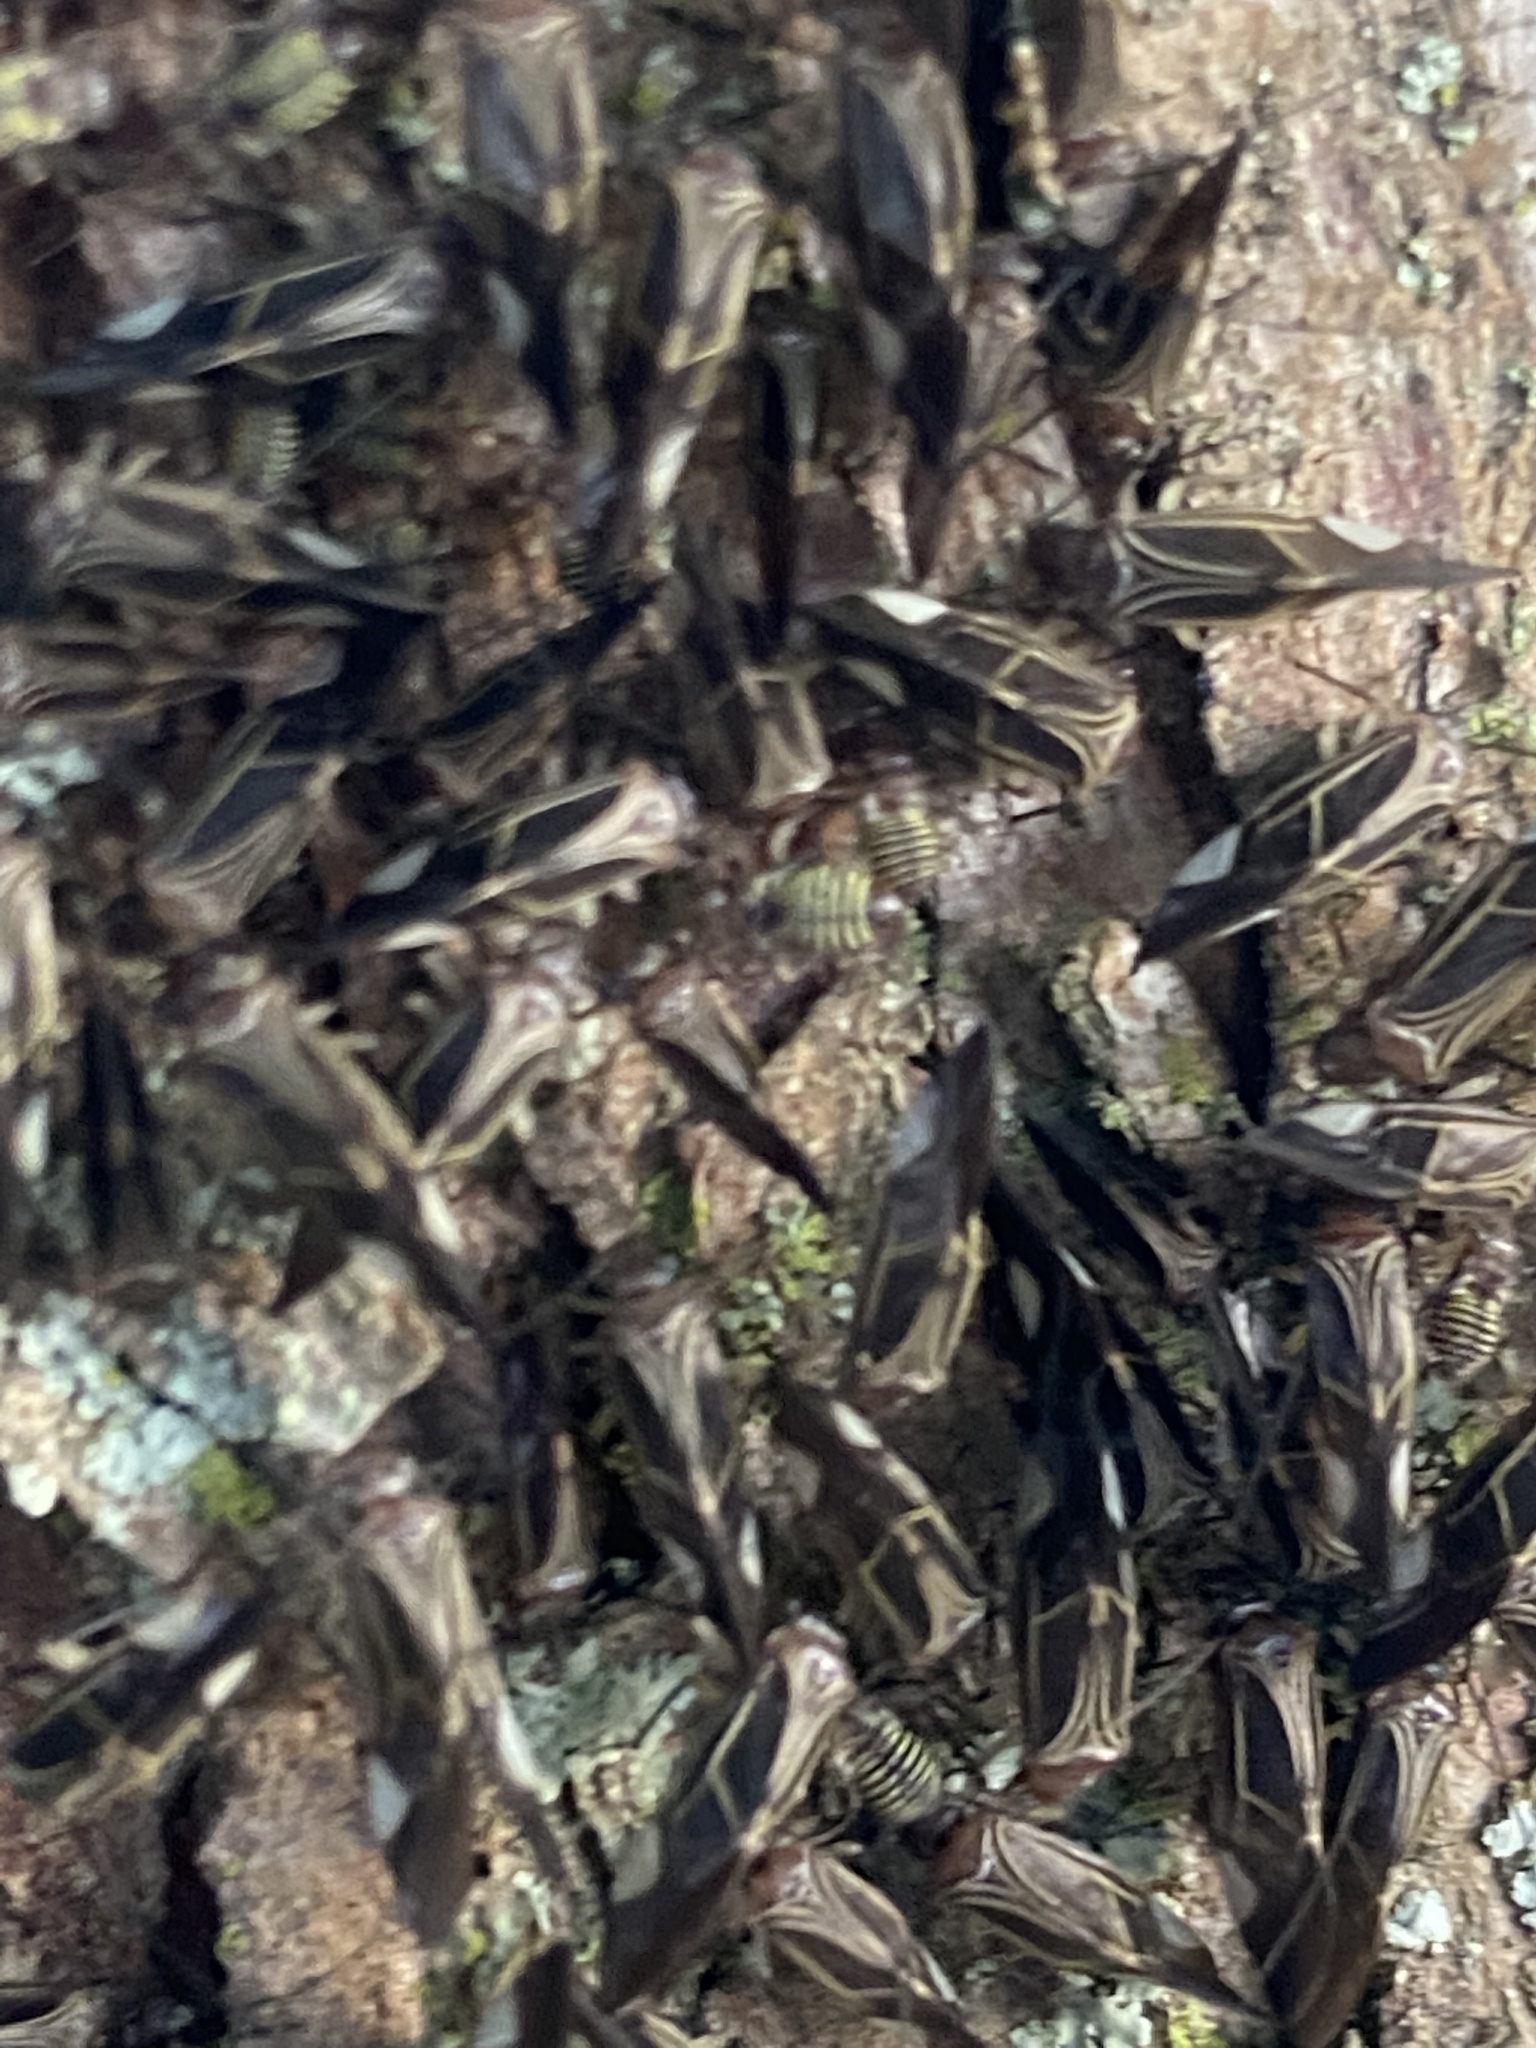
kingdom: Animalia
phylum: Arthropoda
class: Insecta
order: Psocodea
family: Psocidae
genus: Cerastipsocus
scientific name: Cerastipsocus venosus
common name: Tree cattle
